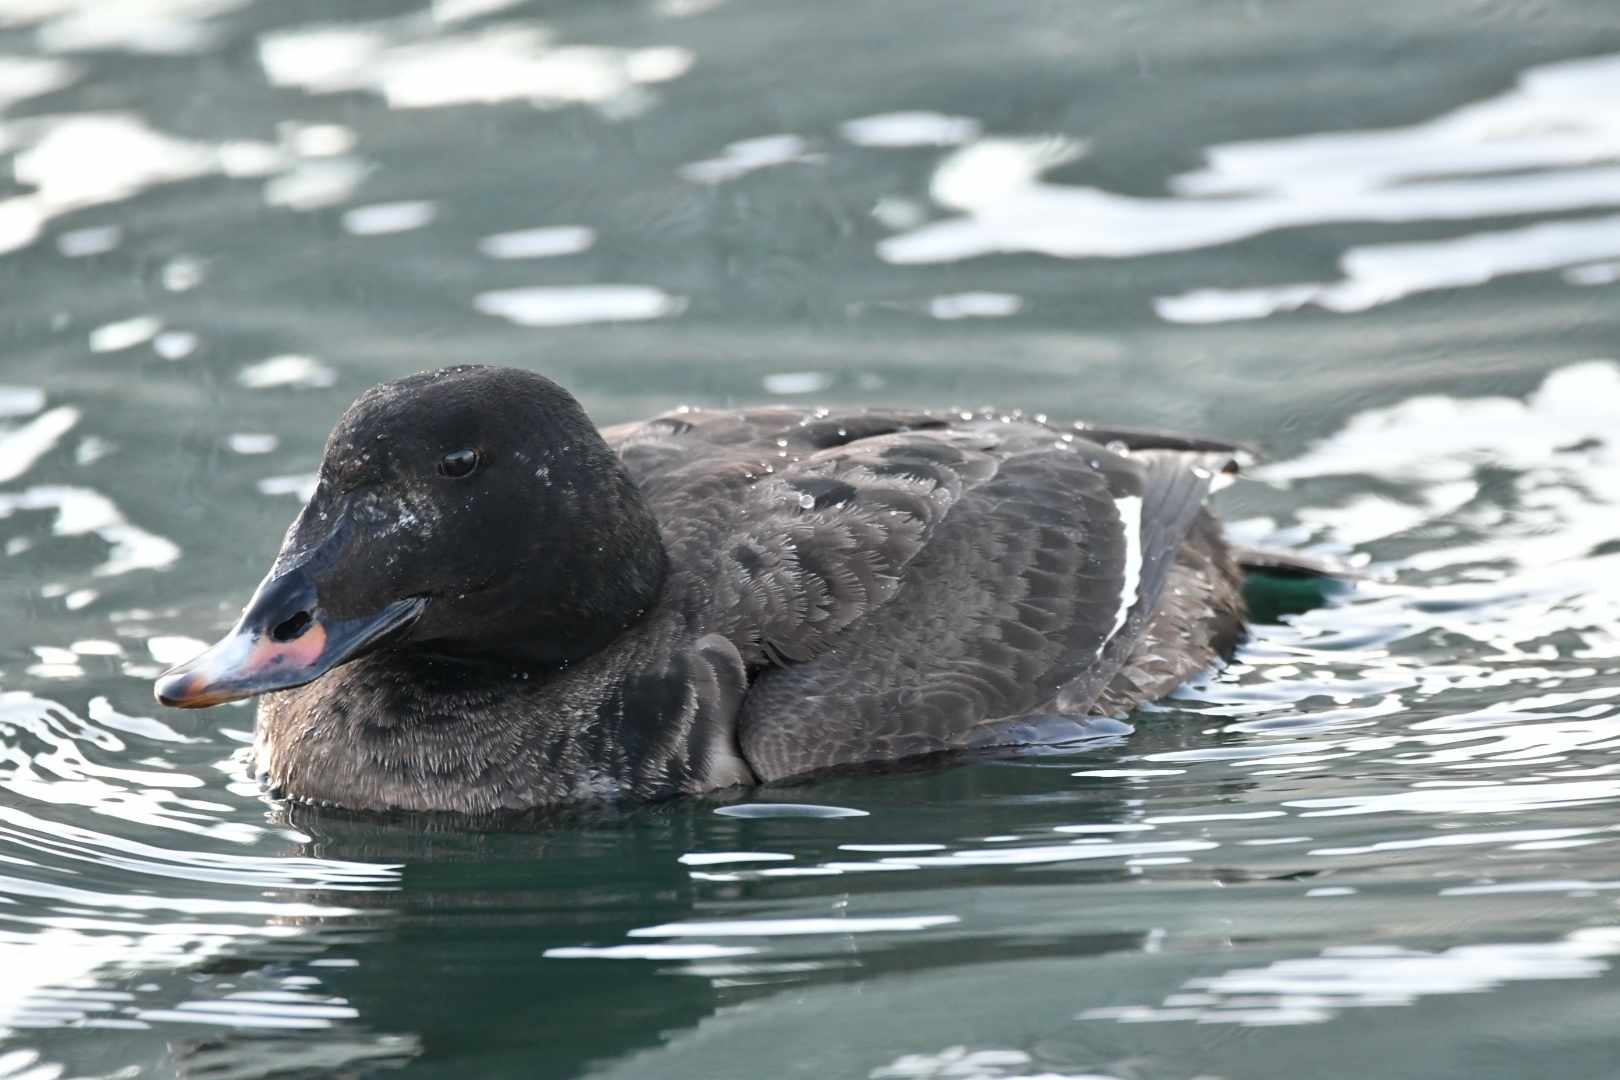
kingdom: Animalia
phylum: Chordata
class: Aves
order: Anseriformes
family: Anatidae
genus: Melanitta
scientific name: Melanitta deglandi
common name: White-winged scoter
